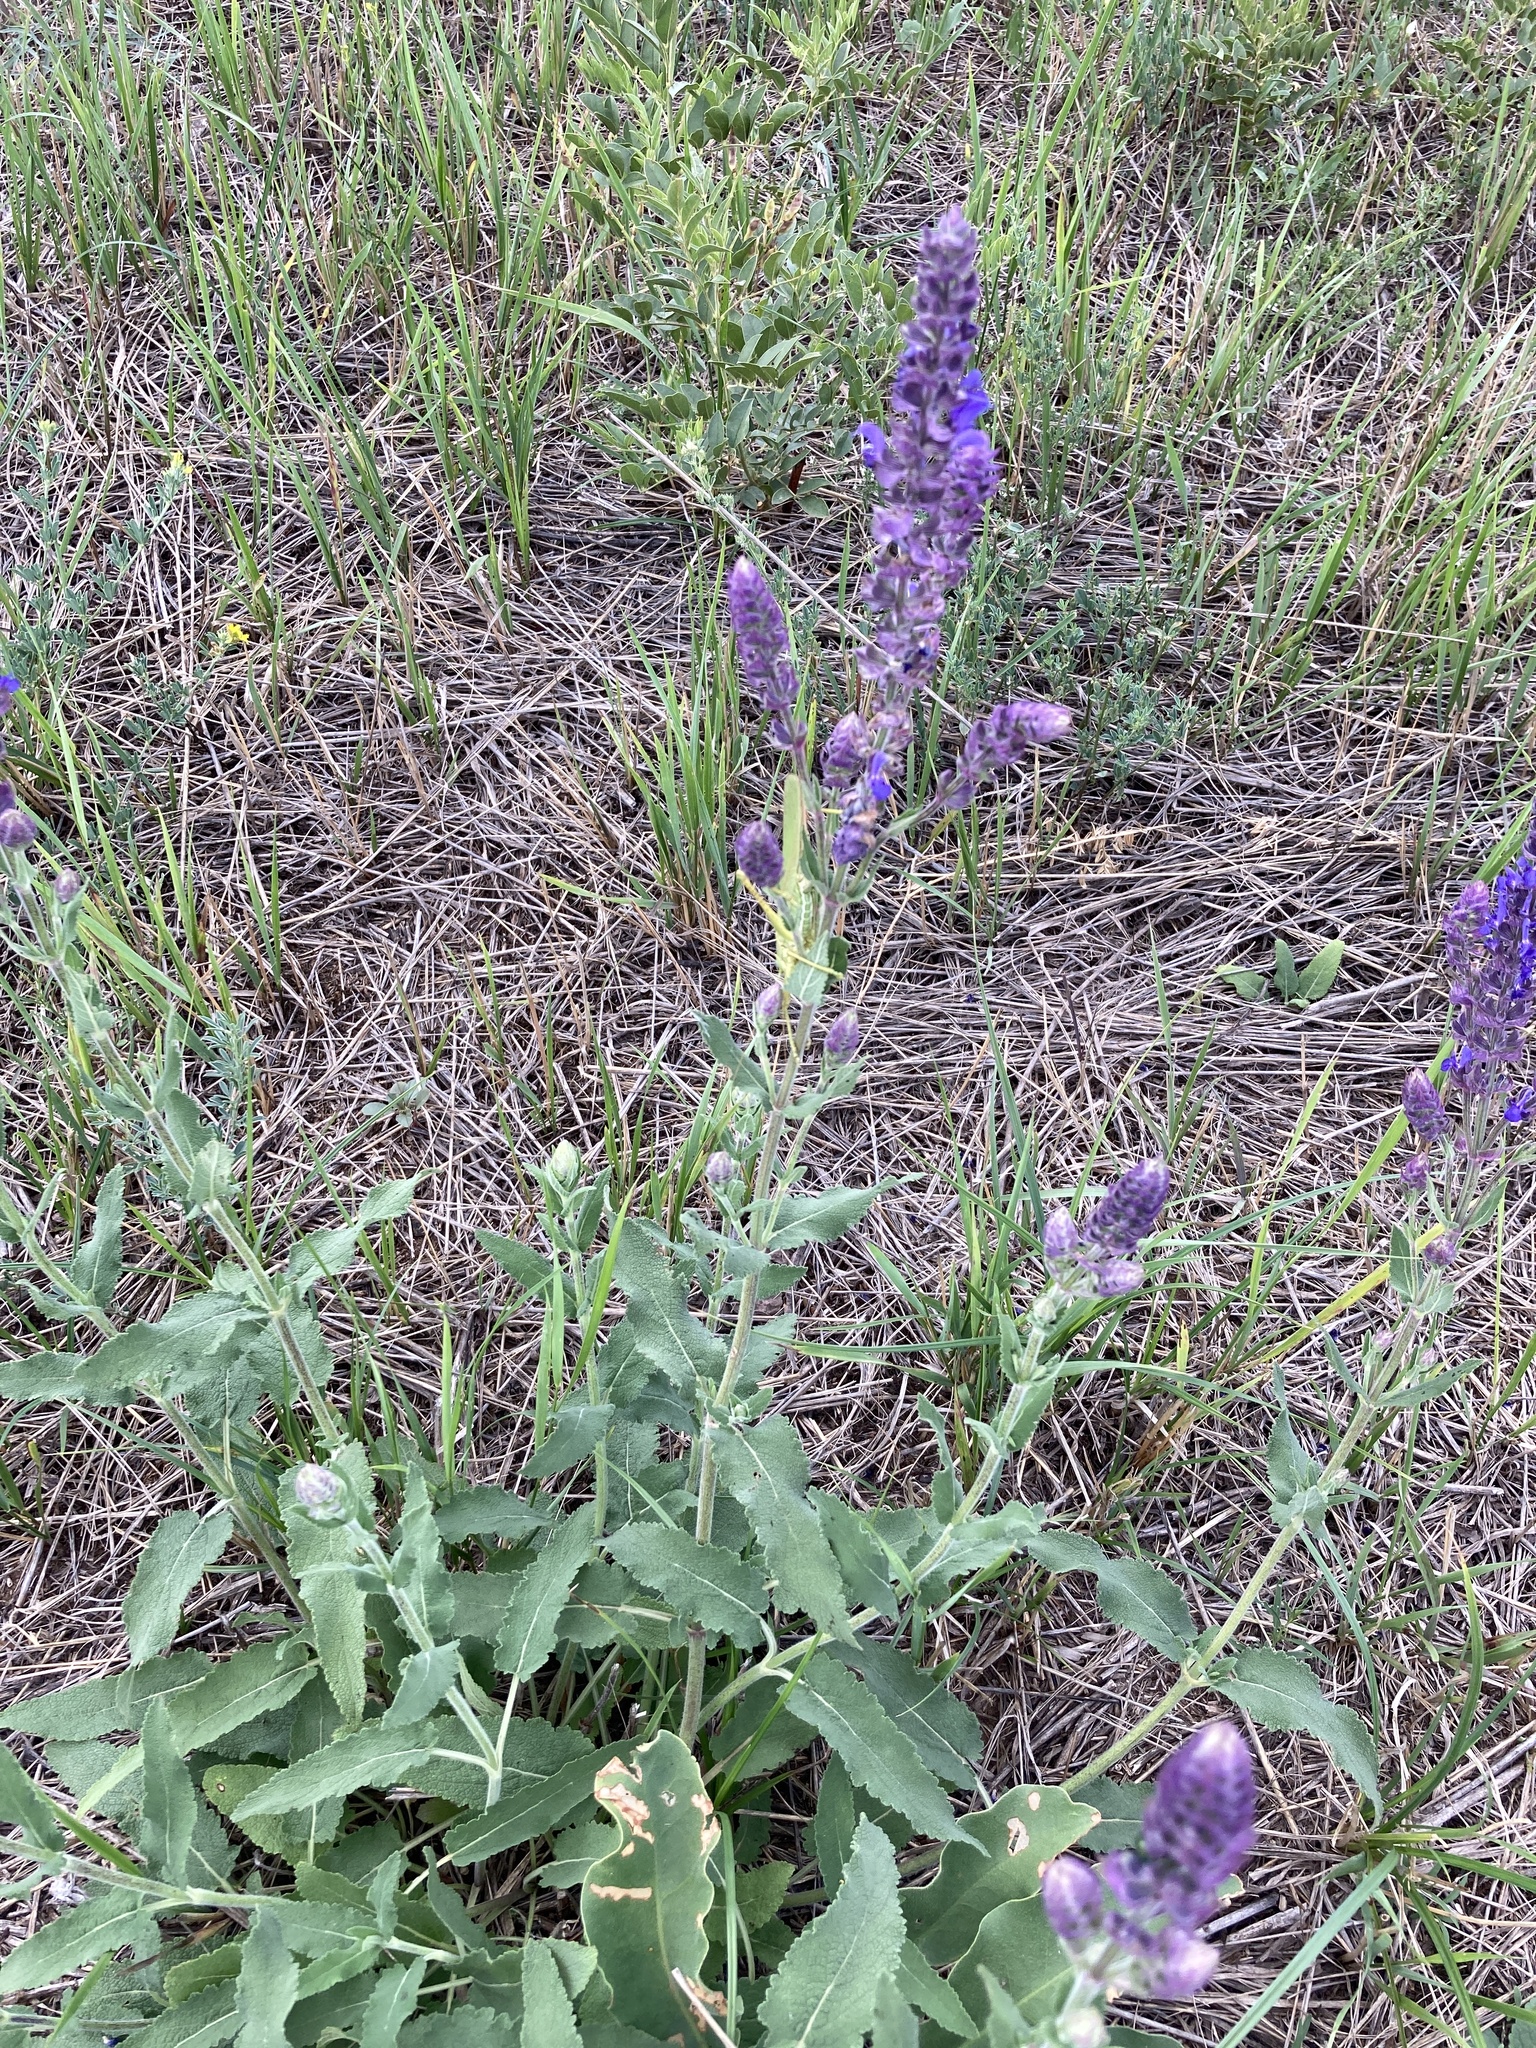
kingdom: Plantae
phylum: Tracheophyta
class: Magnoliopsida
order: Lamiales
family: Lamiaceae
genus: Salvia
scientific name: Salvia nemorosa
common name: Balkan clary
